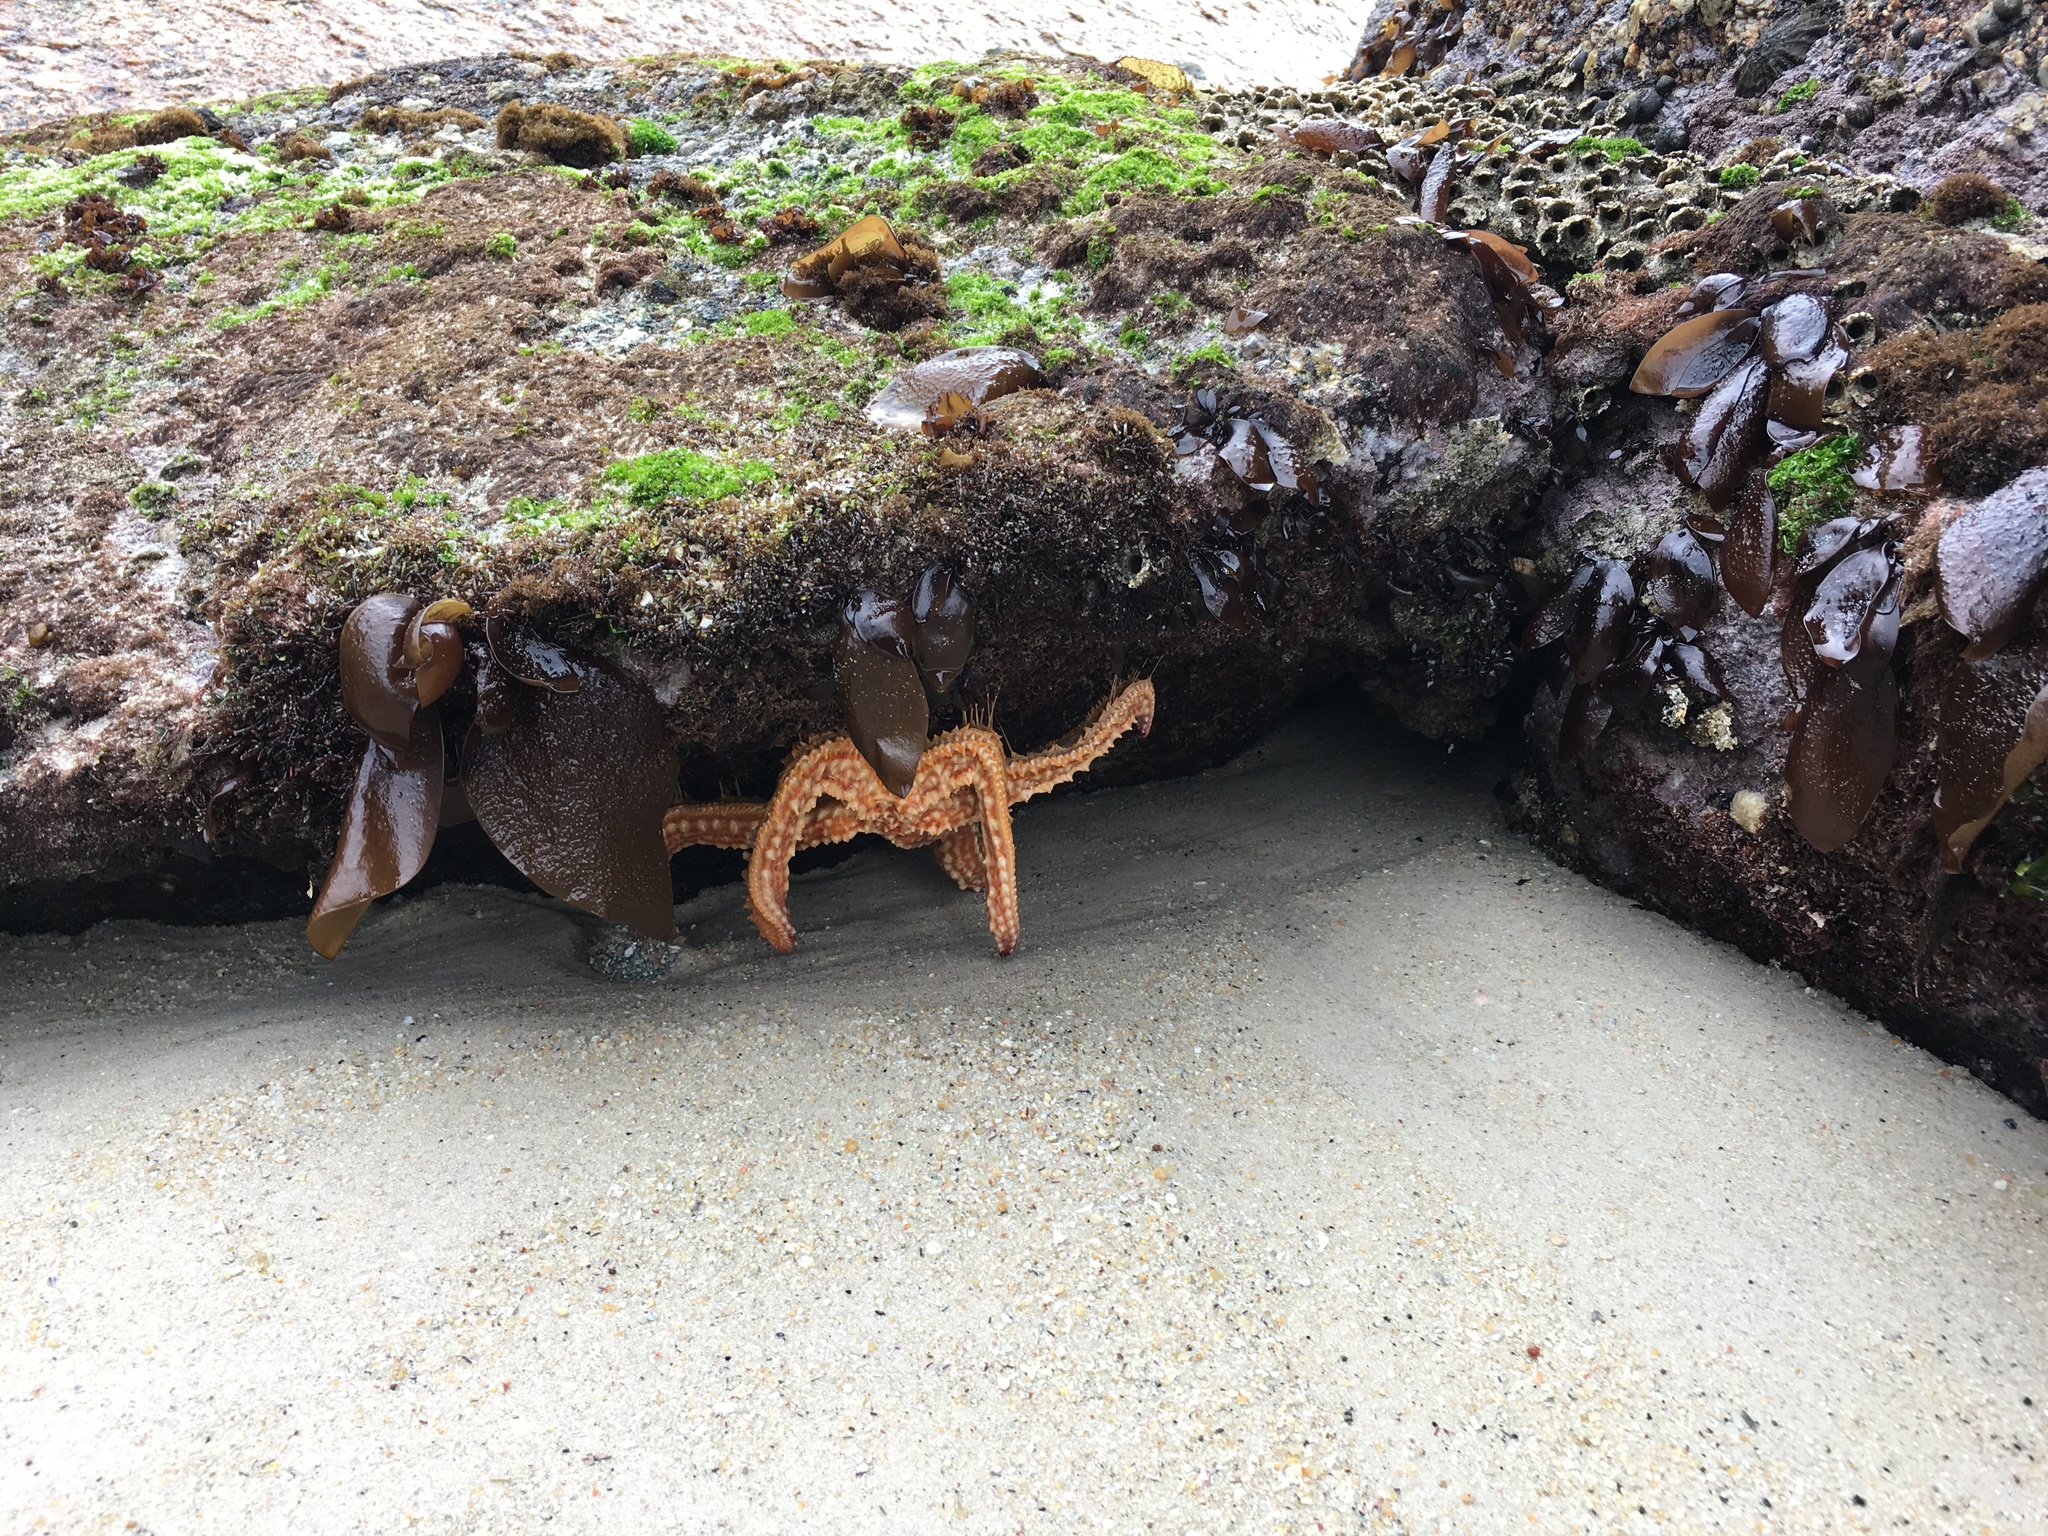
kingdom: Animalia
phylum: Echinodermata
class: Asteroidea
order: Forcipulatida
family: Asteriidae
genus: Marthasterias
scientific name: Marthasterias africana
